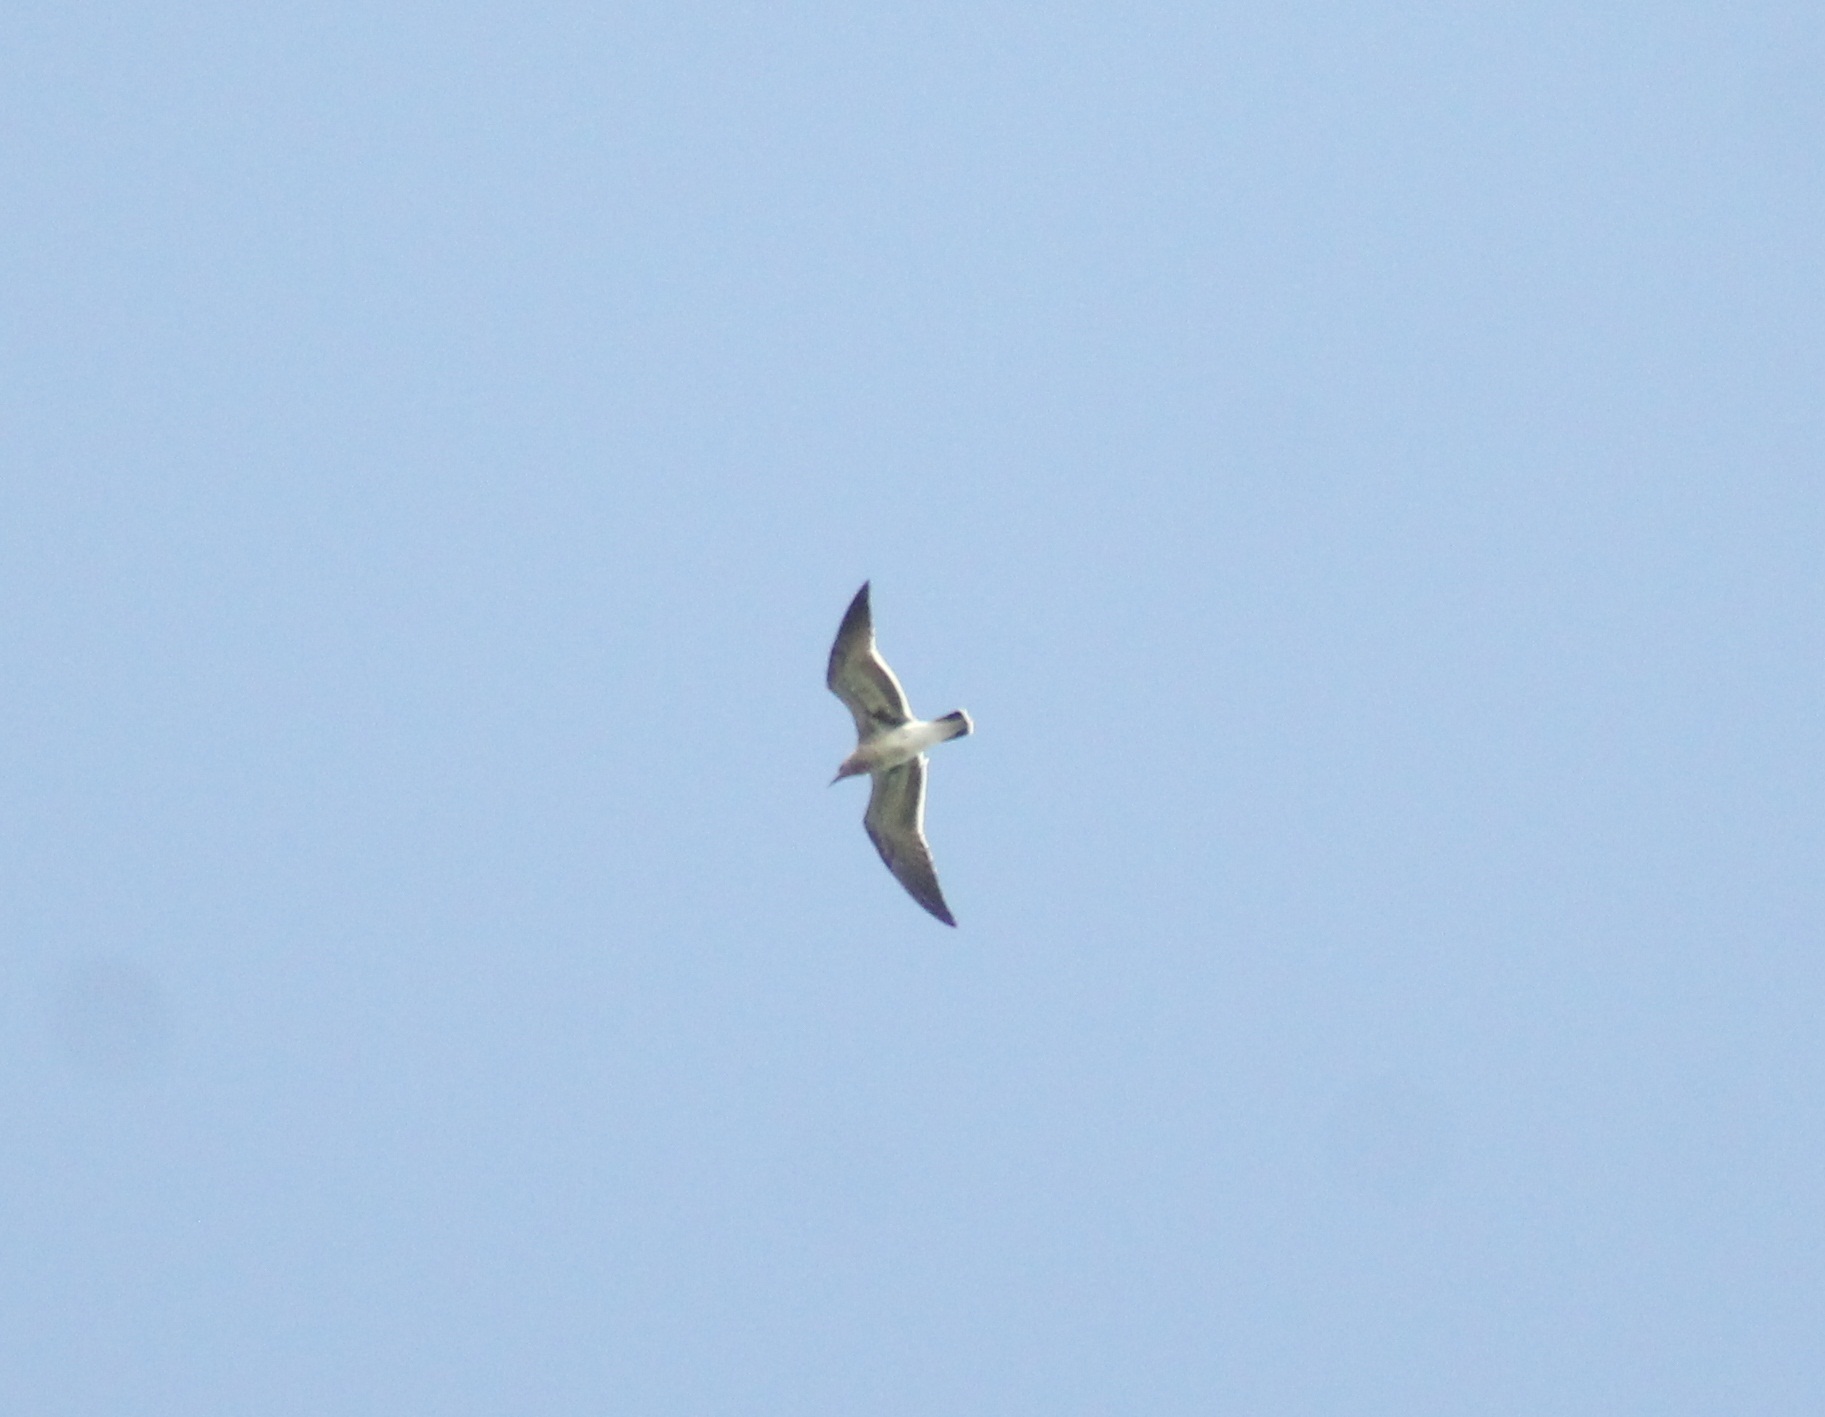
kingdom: Animalia
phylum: Chordata
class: Aves
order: Charadriiformes
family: Laridae
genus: Leucophaeus
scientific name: Leucophaeus atricilla
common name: Laughing gull
